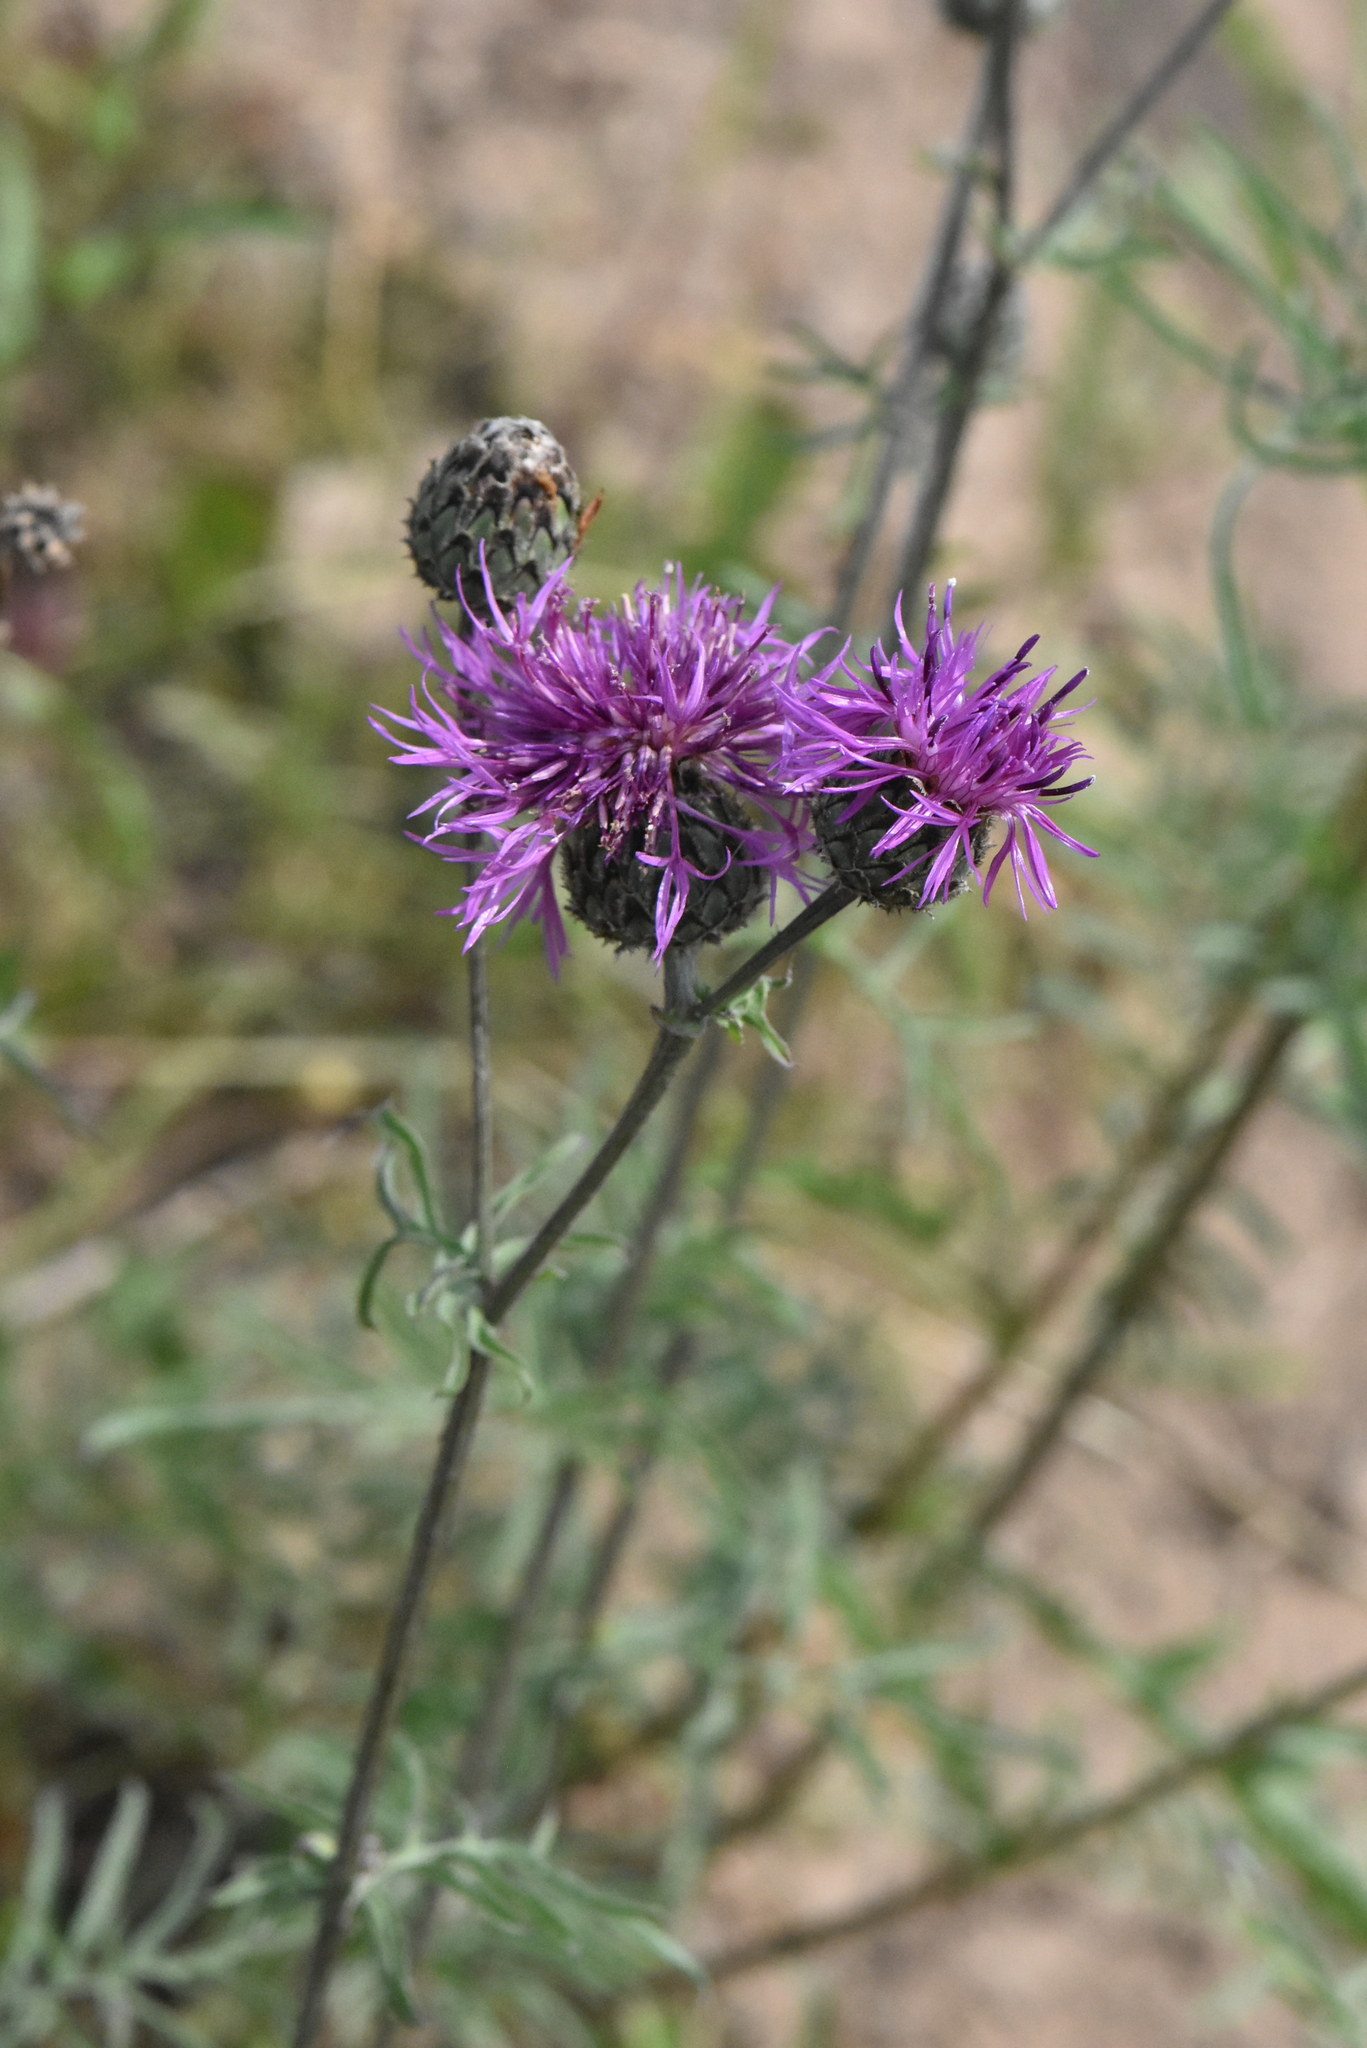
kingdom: Plantae
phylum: Tracheophyta
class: Magnoliopsida
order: Asterales
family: Asteraceae
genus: Centaurea
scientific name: Centaurea scabiosa
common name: Greater knapweed
